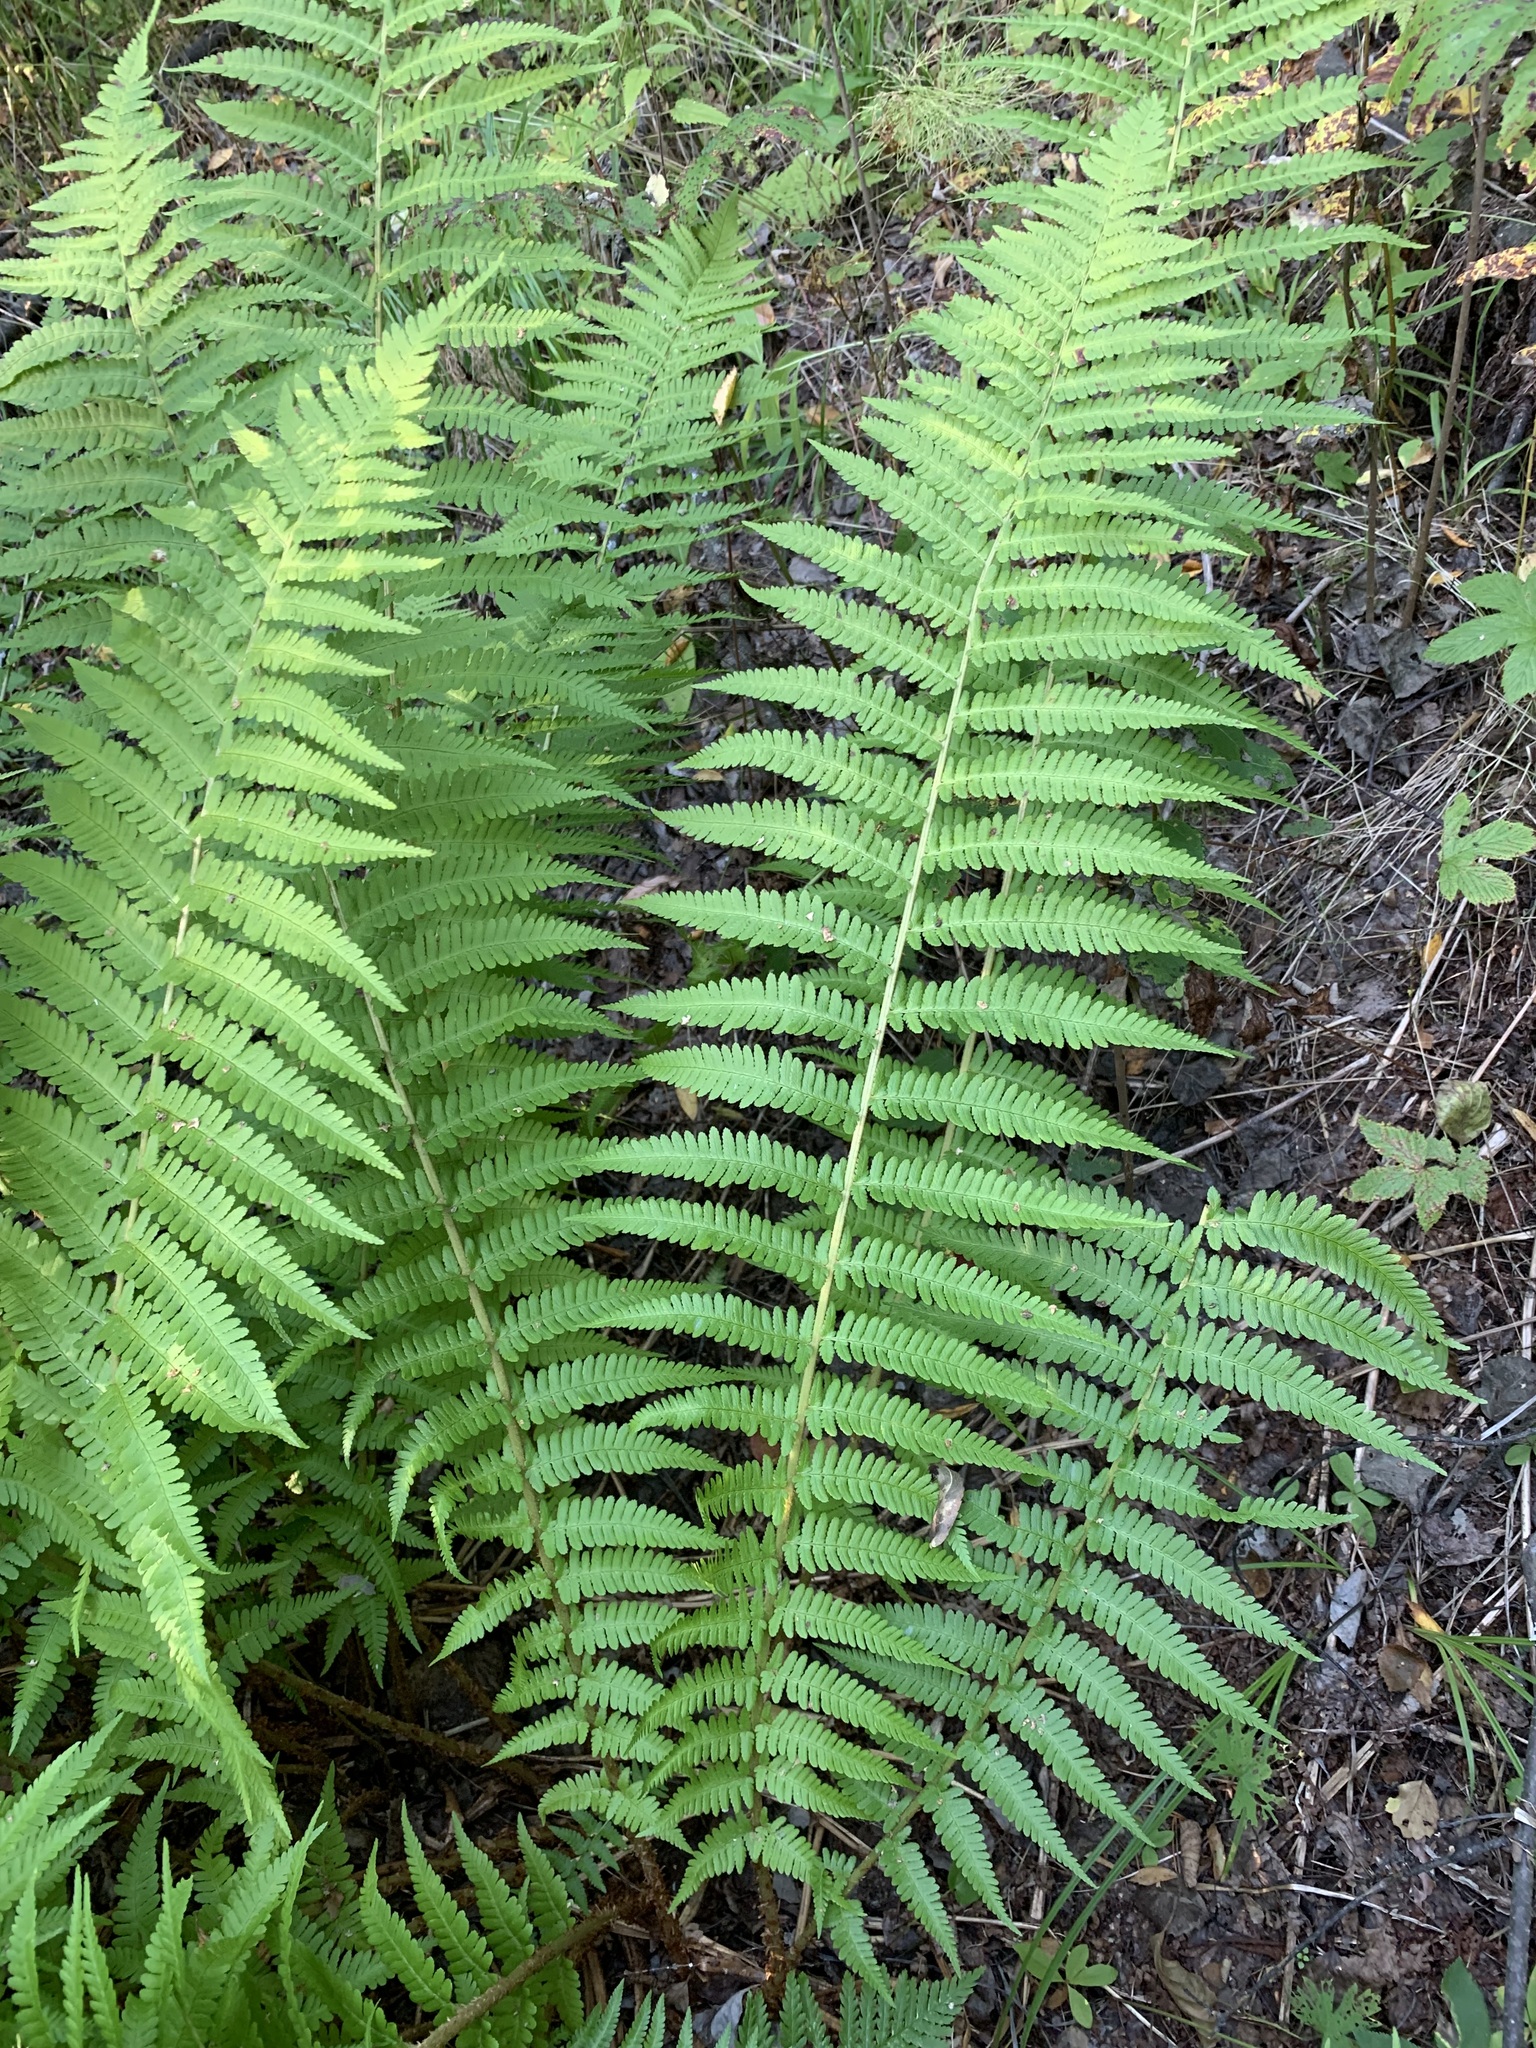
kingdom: Plantae
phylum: Tracheophyta
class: Polypodiopsida
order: Polypodiales
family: Dryopteridaceae
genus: Dryopteris
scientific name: Dryopteris filix-mas
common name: Male fern
